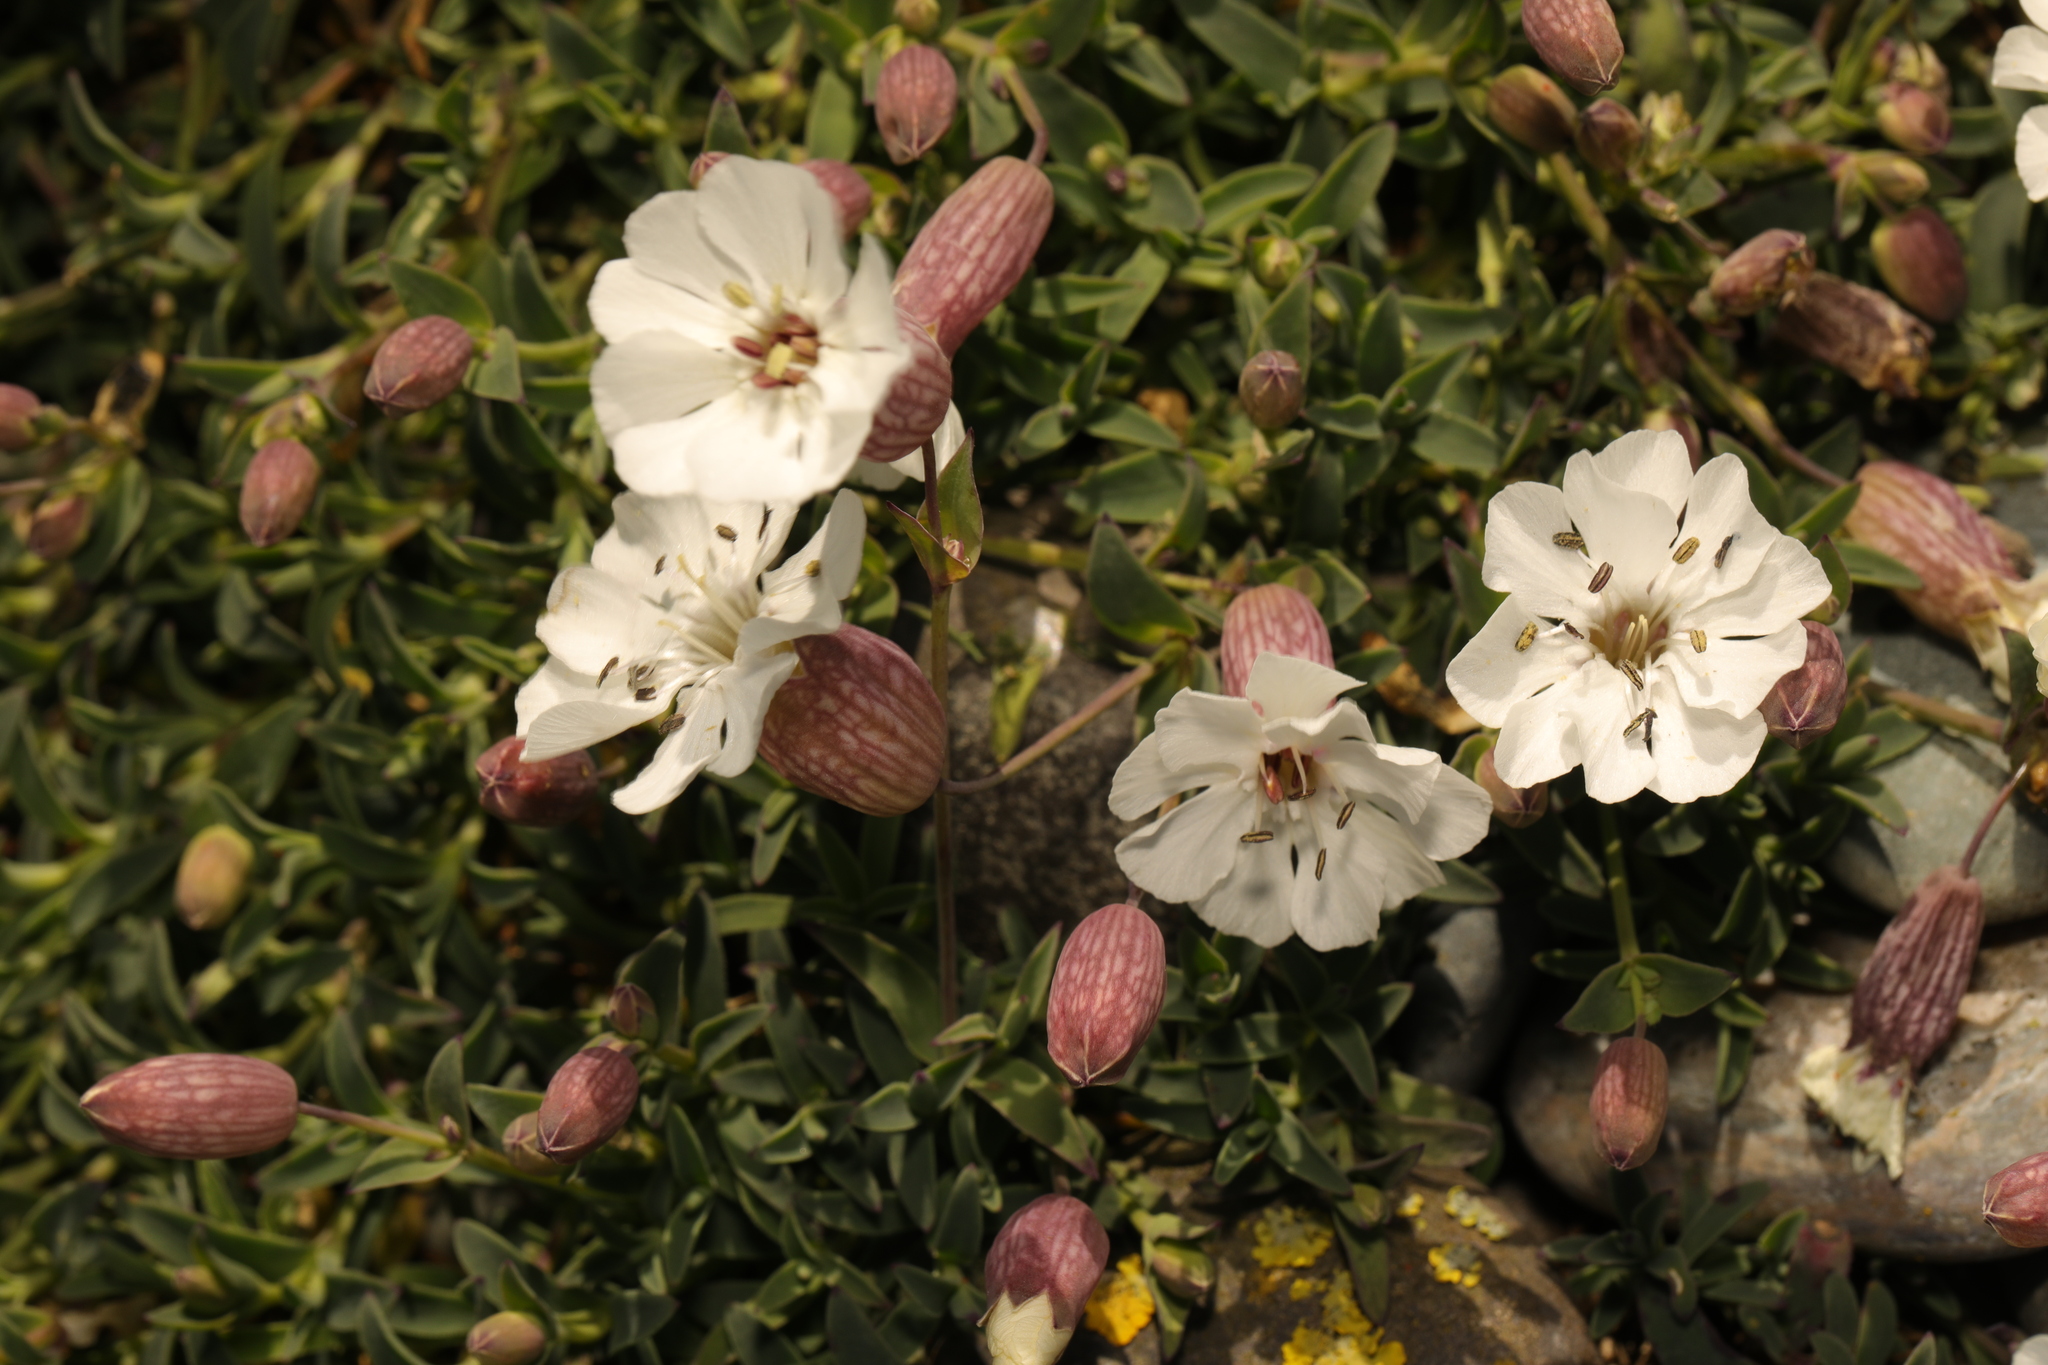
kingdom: Plantae
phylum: Tracheophyta
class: Magnoliopsida
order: Caryophyllales
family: Caryophyllaceae
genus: Silene
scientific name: Silene uniflora
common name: Sea campion
